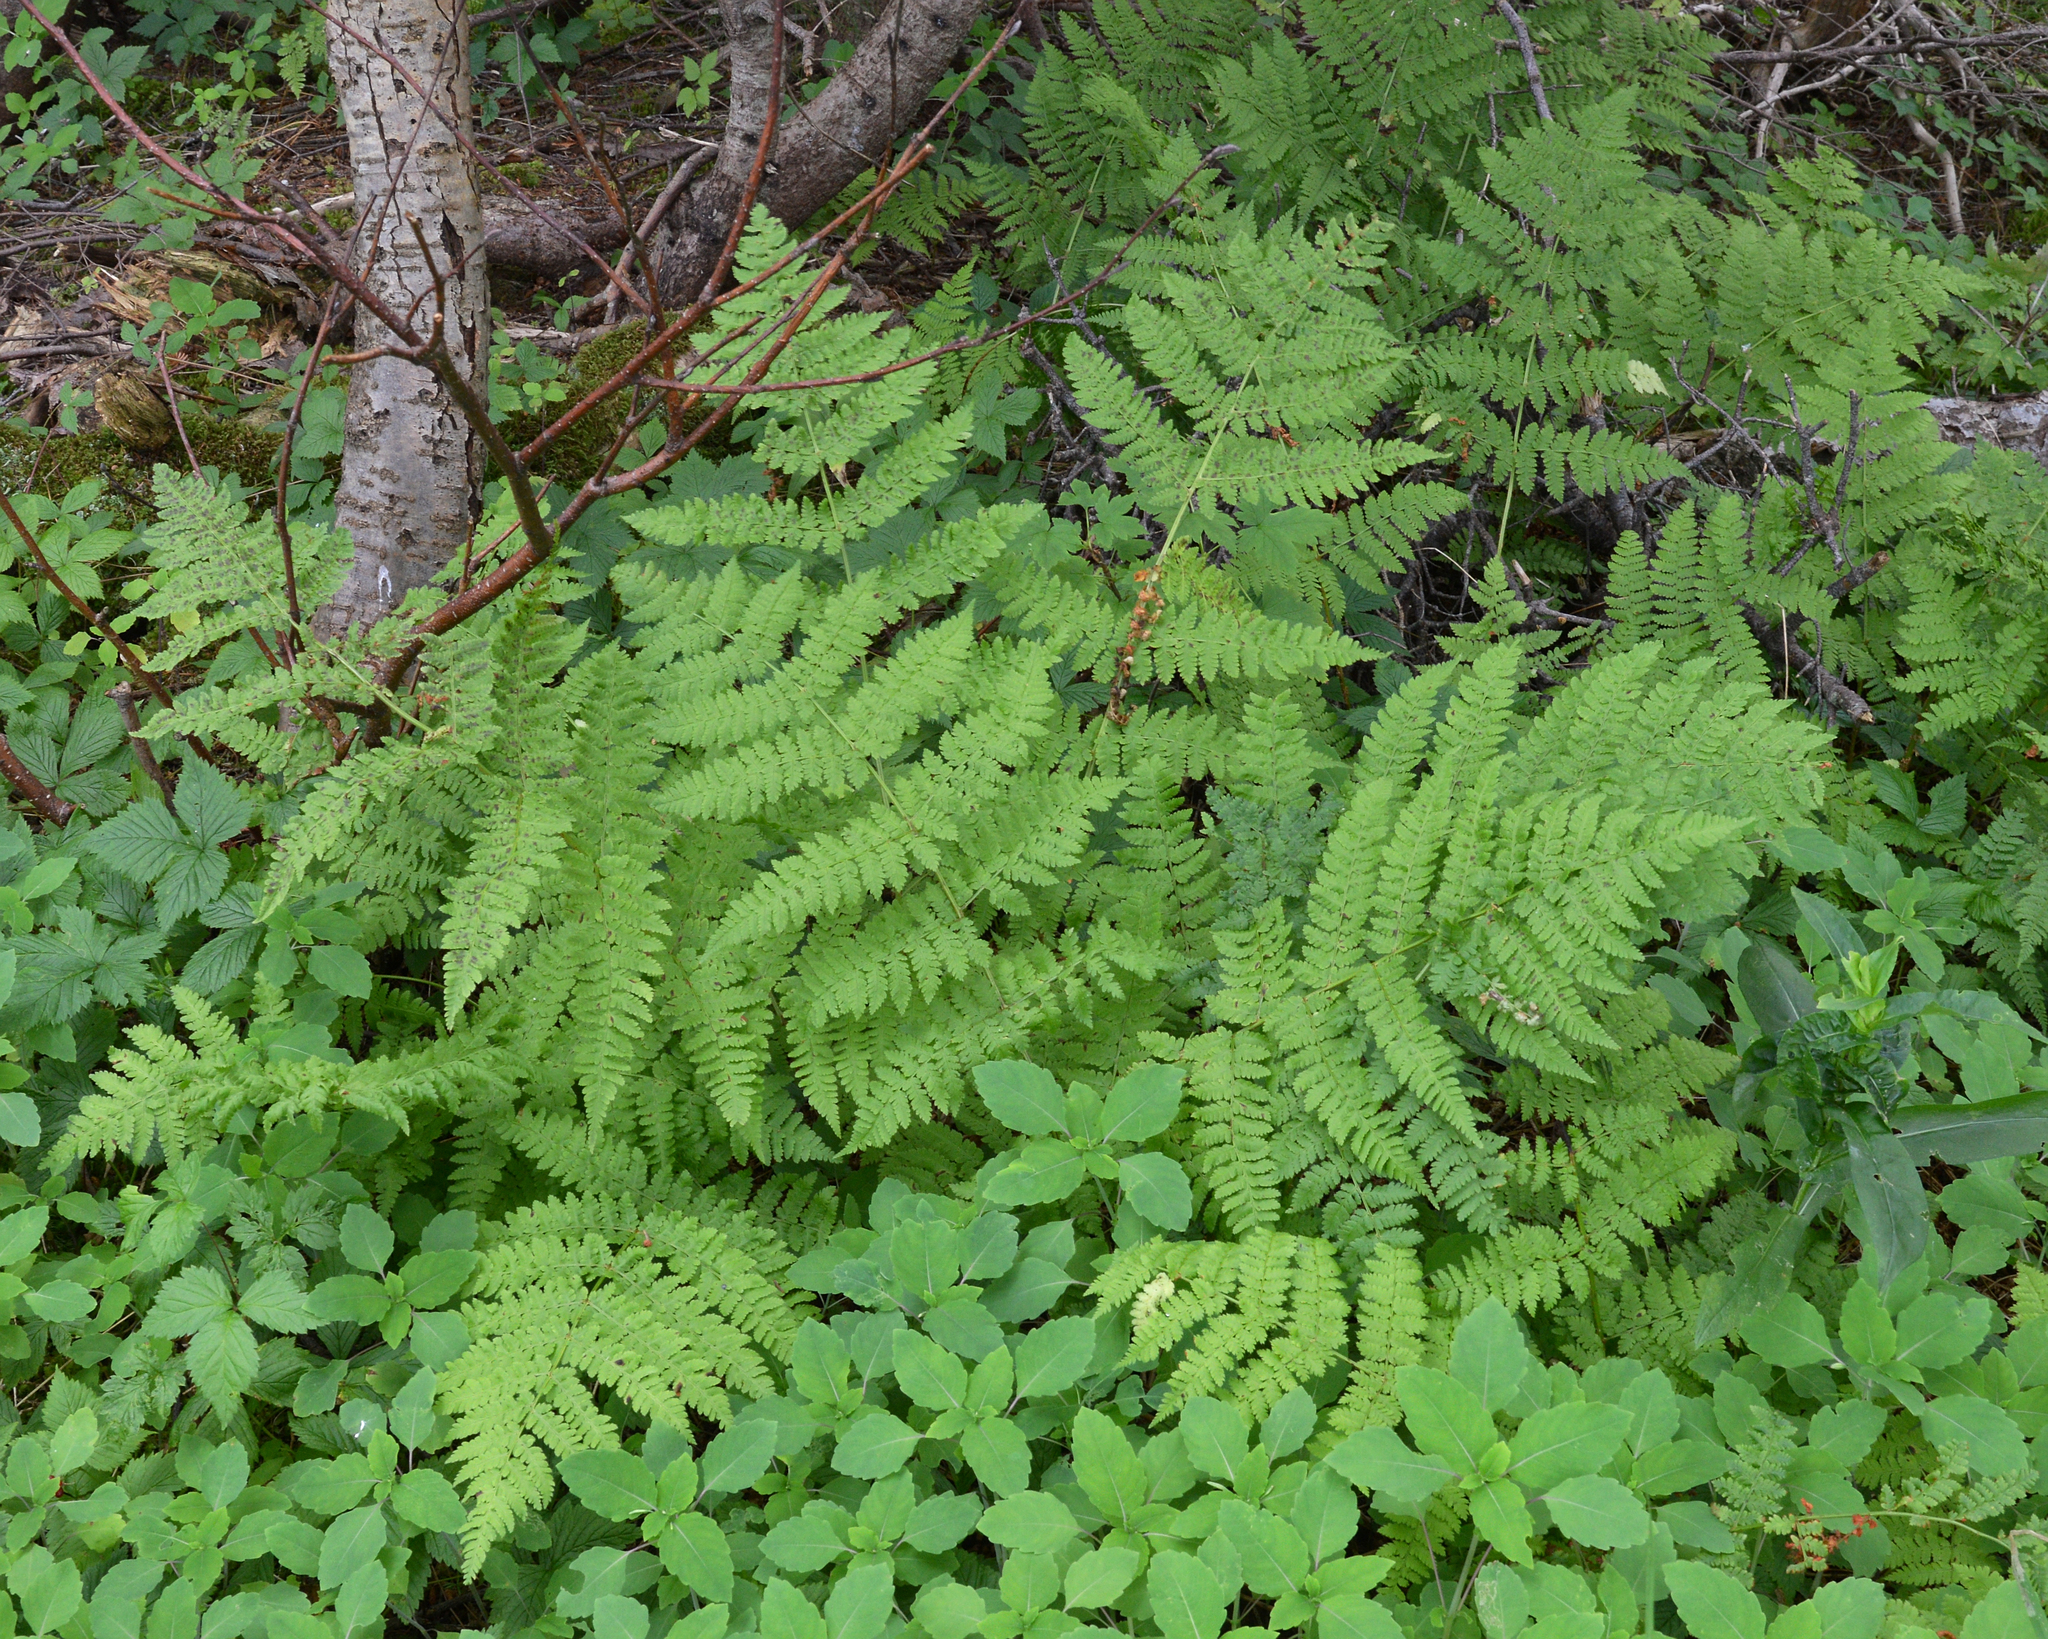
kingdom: Plantae
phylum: Tracheophyta
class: Polypodiopsida
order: Polypodiales
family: Dryopteridaceae
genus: Dryopteris
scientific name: Dryopteris intermedia
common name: Evergreen wood fern
